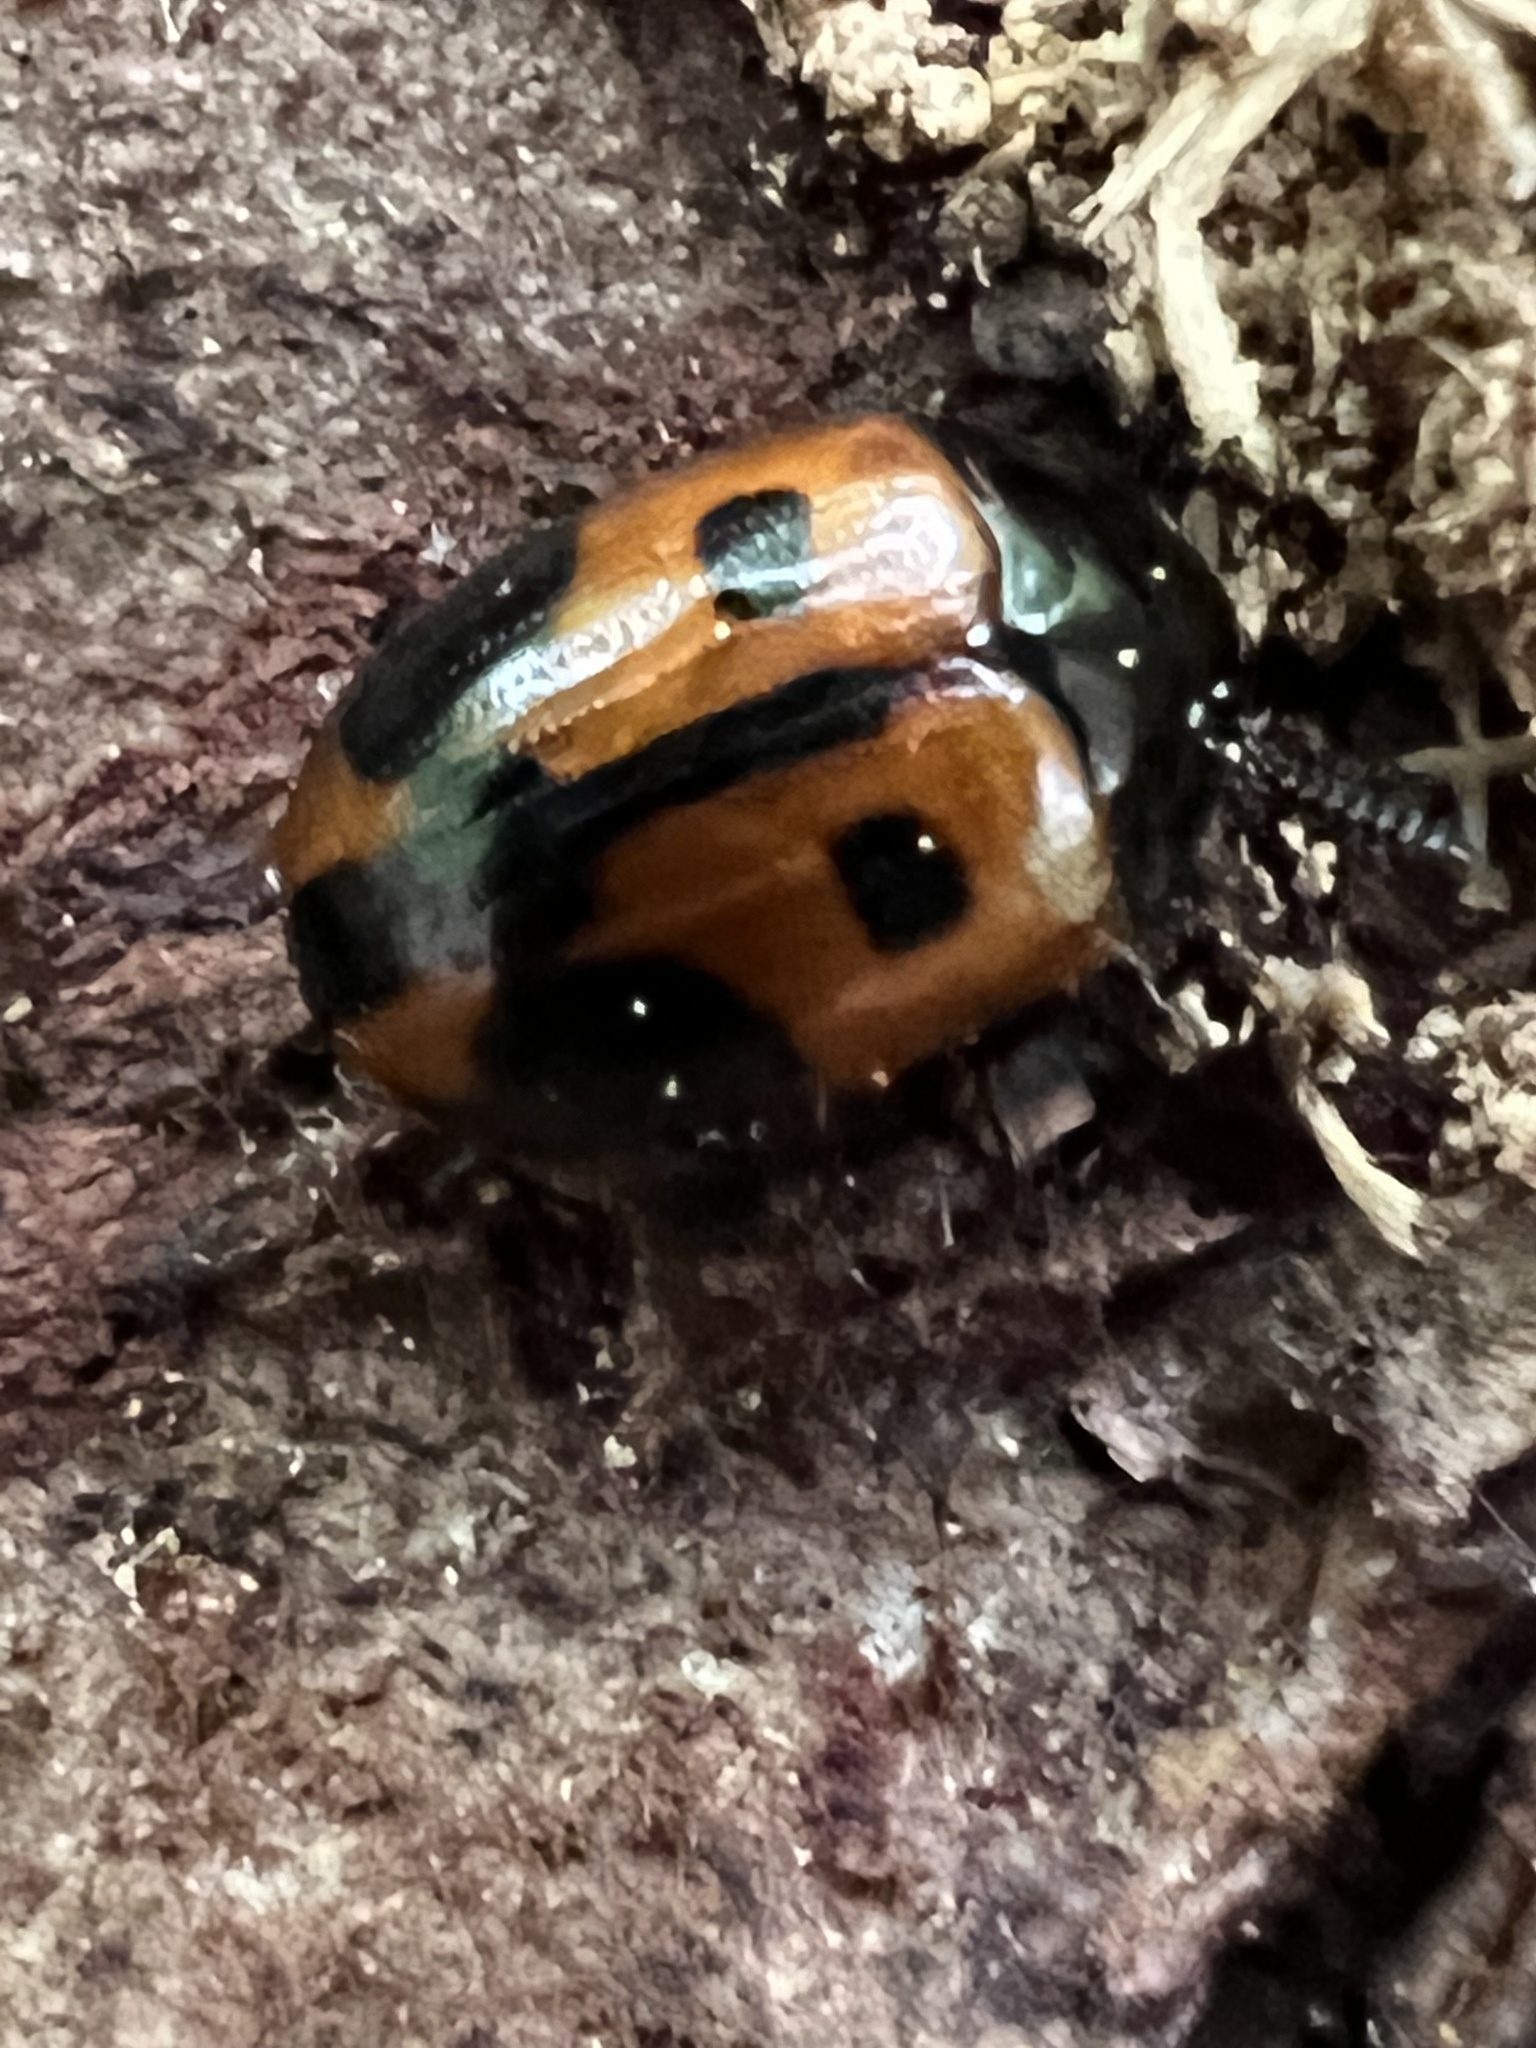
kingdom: Animalia
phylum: Arthropoda
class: Insecta
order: Coleoptera
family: Tenebrionidae
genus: Diaperis
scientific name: Diaperis maculata
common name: Darkling beetle
